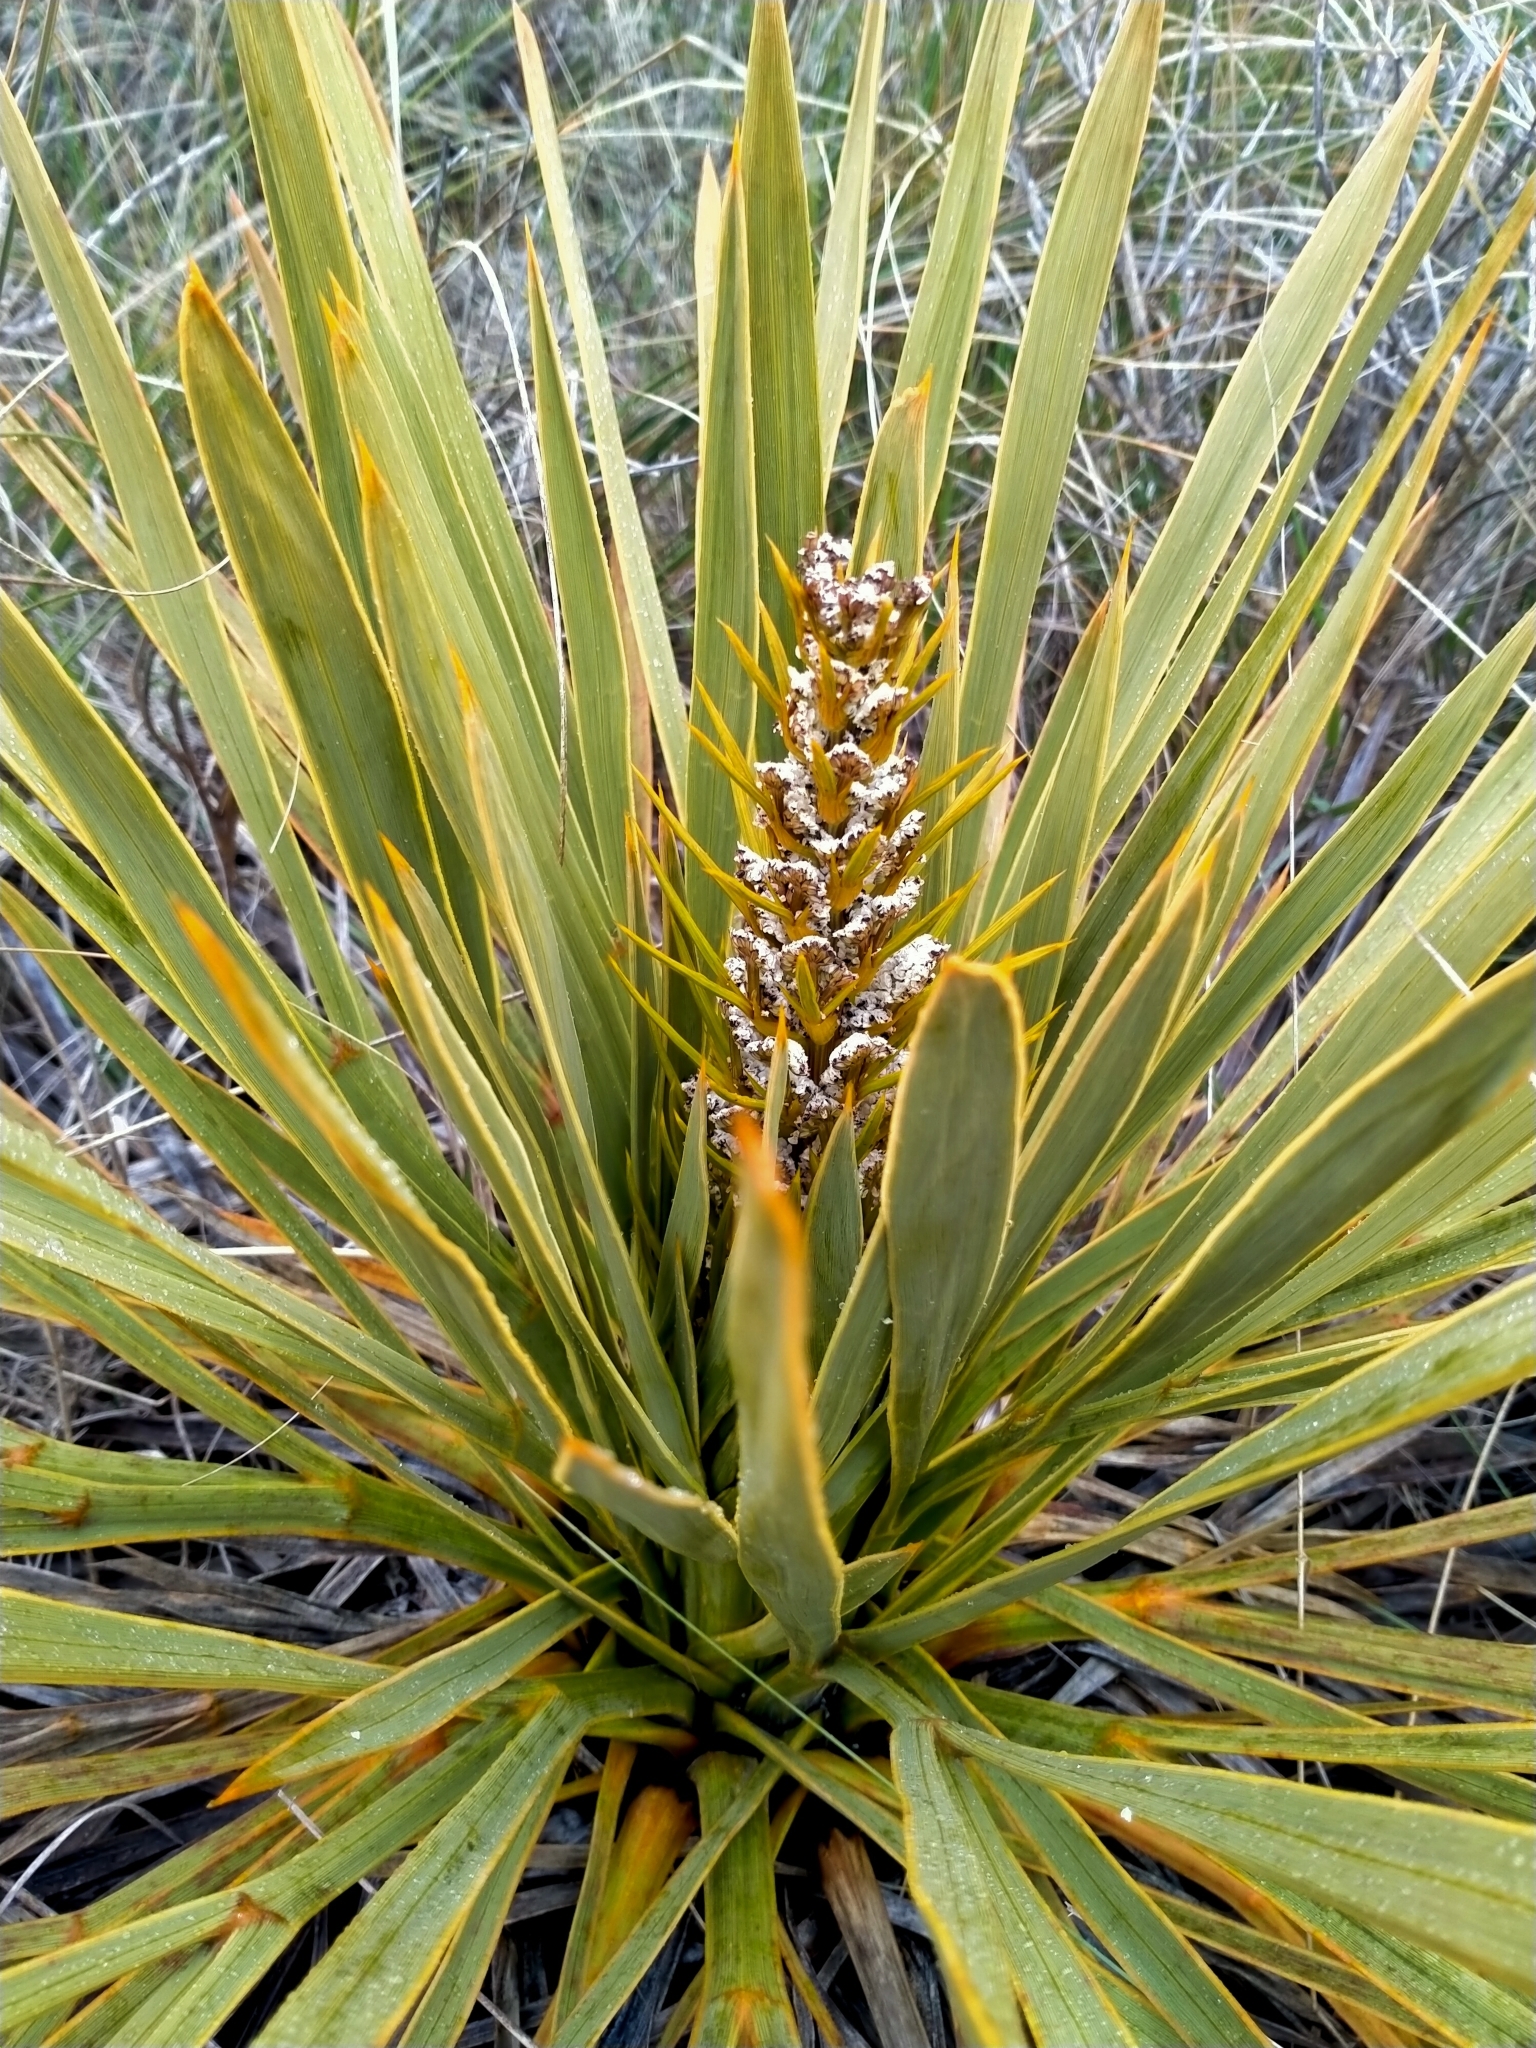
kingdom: Plantae
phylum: Tracheophyta
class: Magnoliopsida
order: Apiales
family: Apiaceae
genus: Aciphylla
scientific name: Aciphylla aurea
